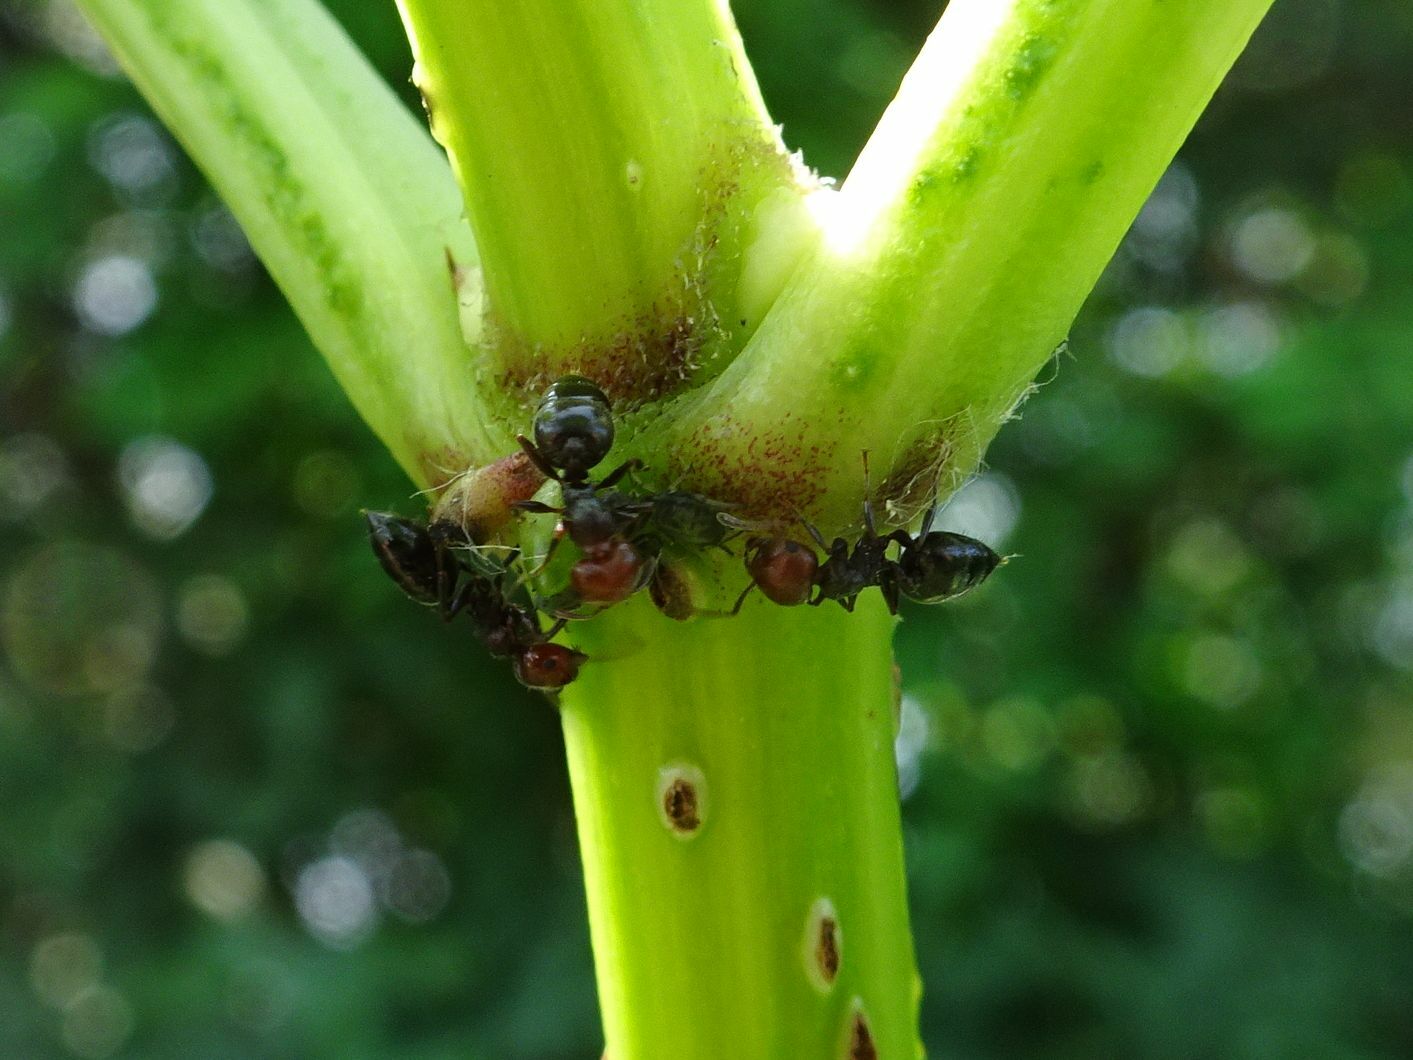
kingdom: Animalia
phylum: Arthropoda
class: Insecta
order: Hymenoptera
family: Formicidae
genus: Crematogaster
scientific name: Crematogaster scutellaris
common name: Fourmi du liège
